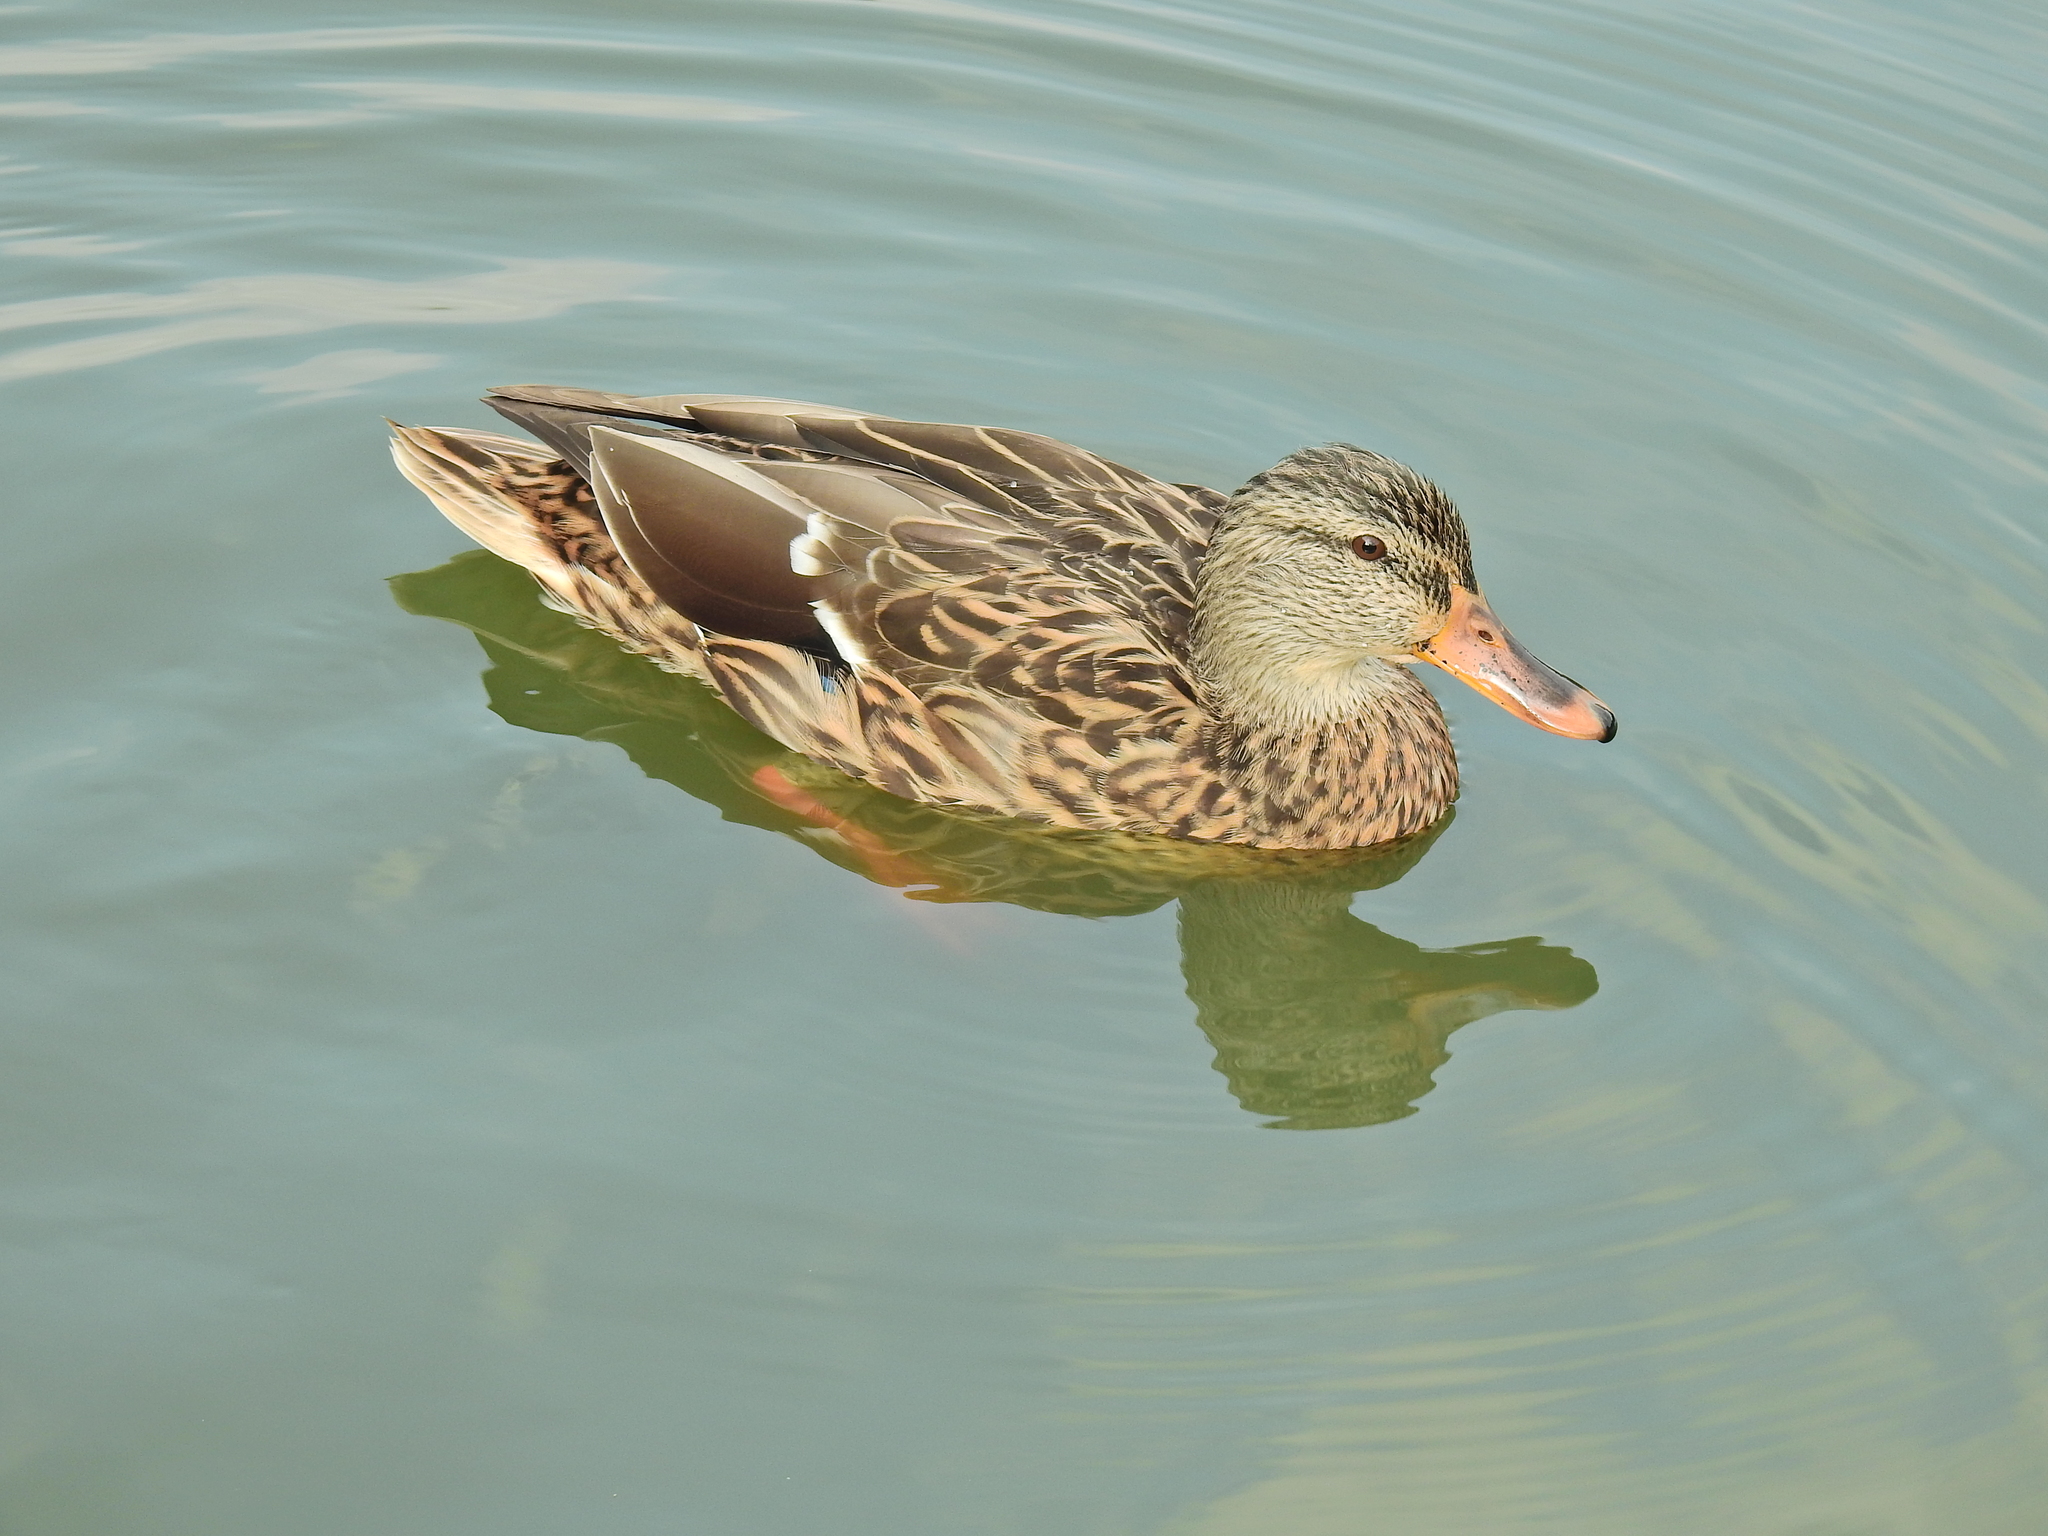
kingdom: Animalia
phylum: Chordata
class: Aves
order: Anseriformes
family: Anatidae
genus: Anas
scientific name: Anas platyrhynchos
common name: Mallard
